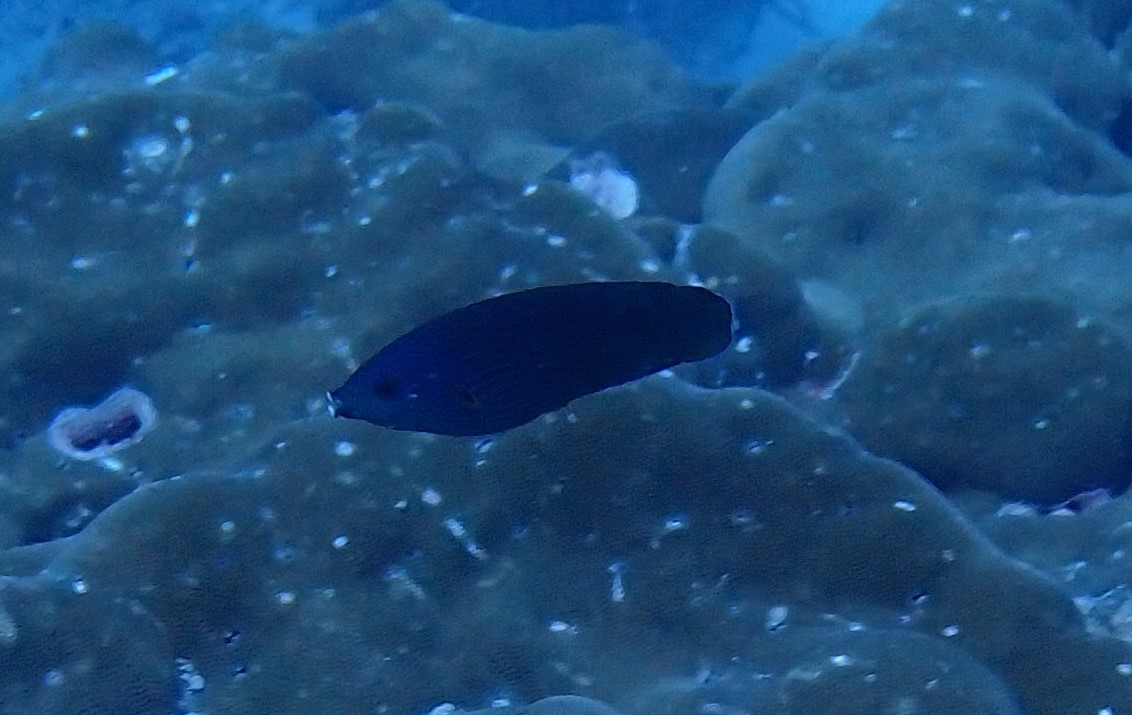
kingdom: Animalia
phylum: Chordata
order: Perciformes
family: Labridae
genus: Labrichthys
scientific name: Labrichthys unilineatus
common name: Onelined wrasse
